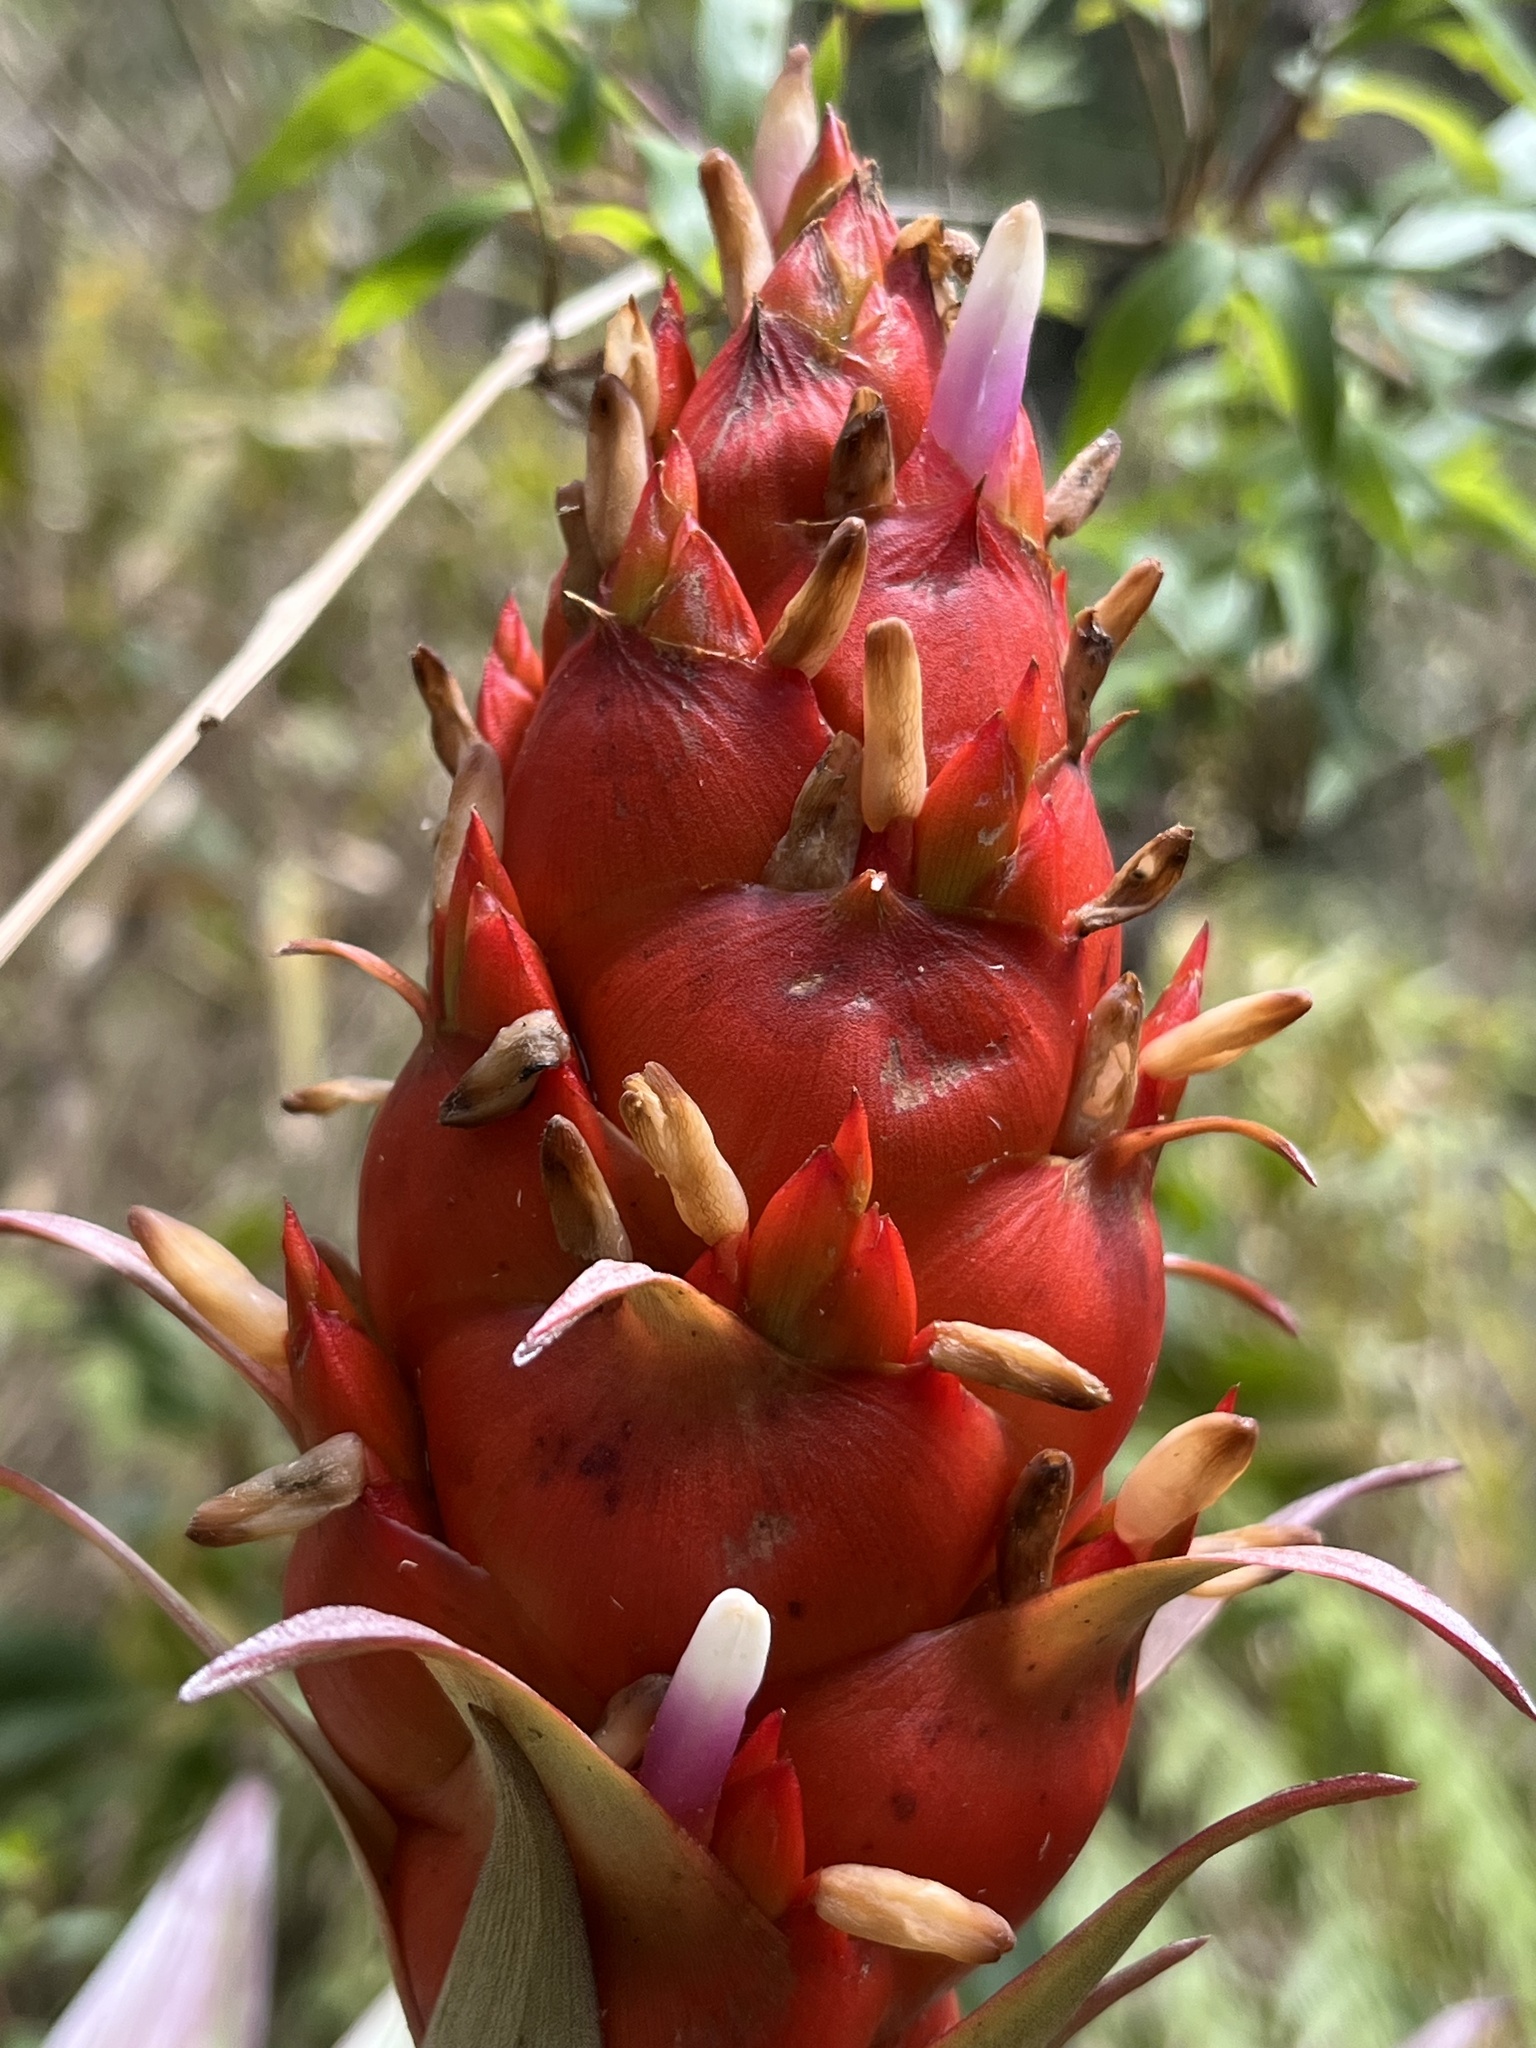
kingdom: Plantae
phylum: Tracheophyta
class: Liliopsida
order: Poales
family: Bromeliaceae
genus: Tillandsia
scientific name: Tillandsia turneri
